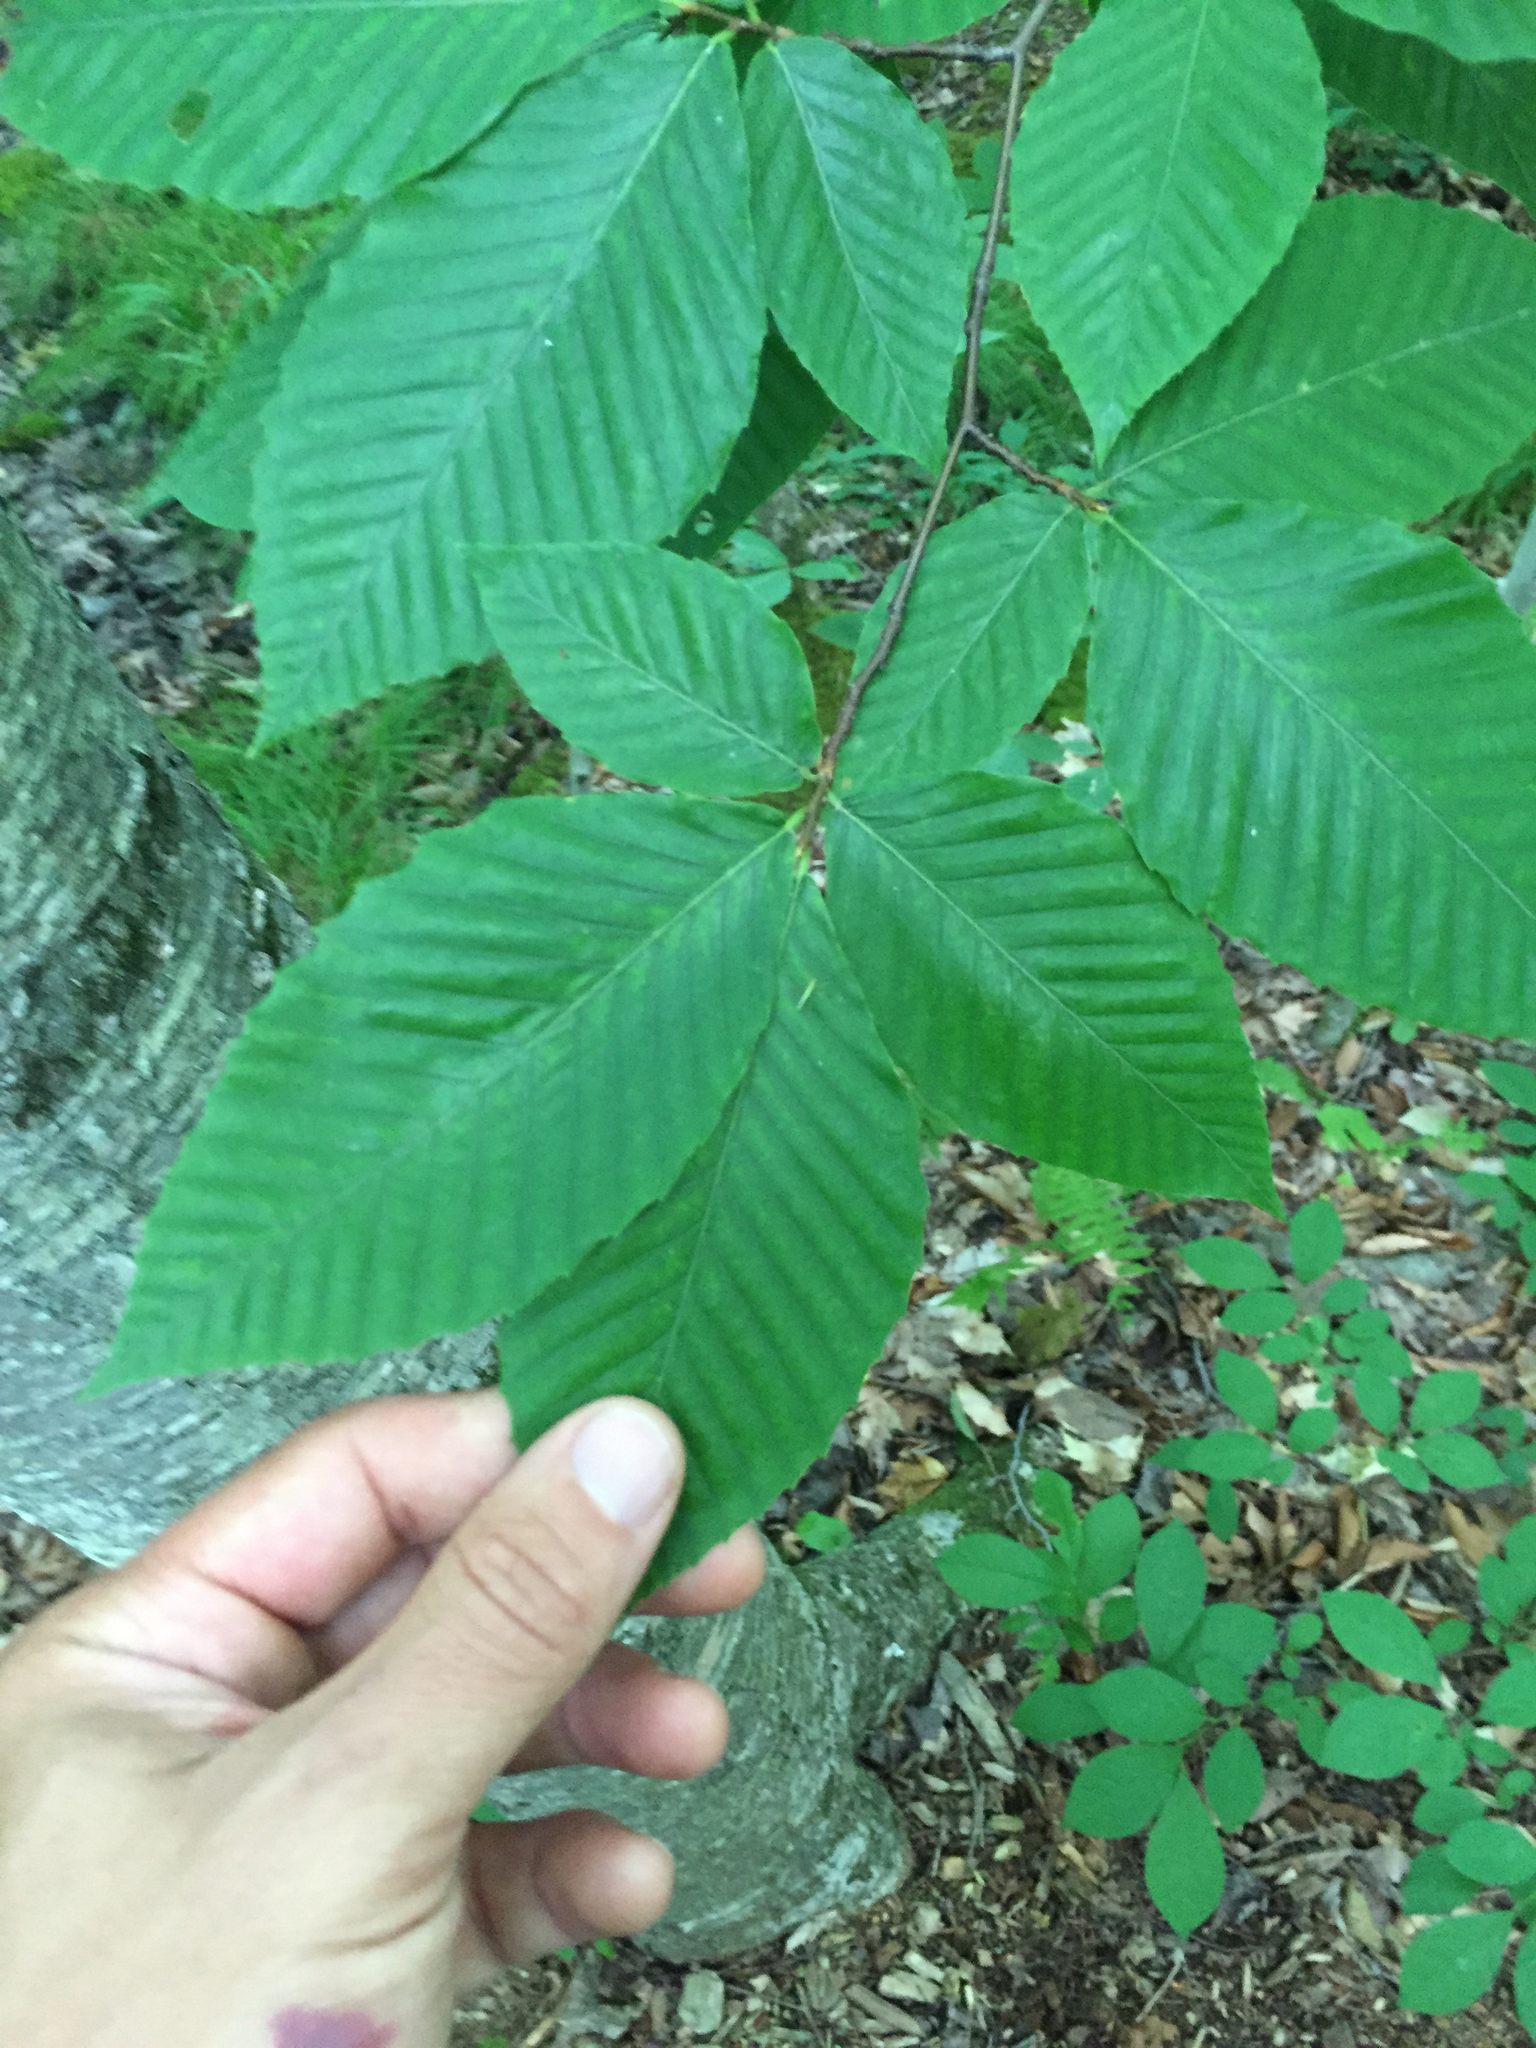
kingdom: Plantae
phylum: Tracheophyta
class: Magnoliopsida
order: Fagales
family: Fagaceae
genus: Fagus
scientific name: Fagus grandifolia
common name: American beech
